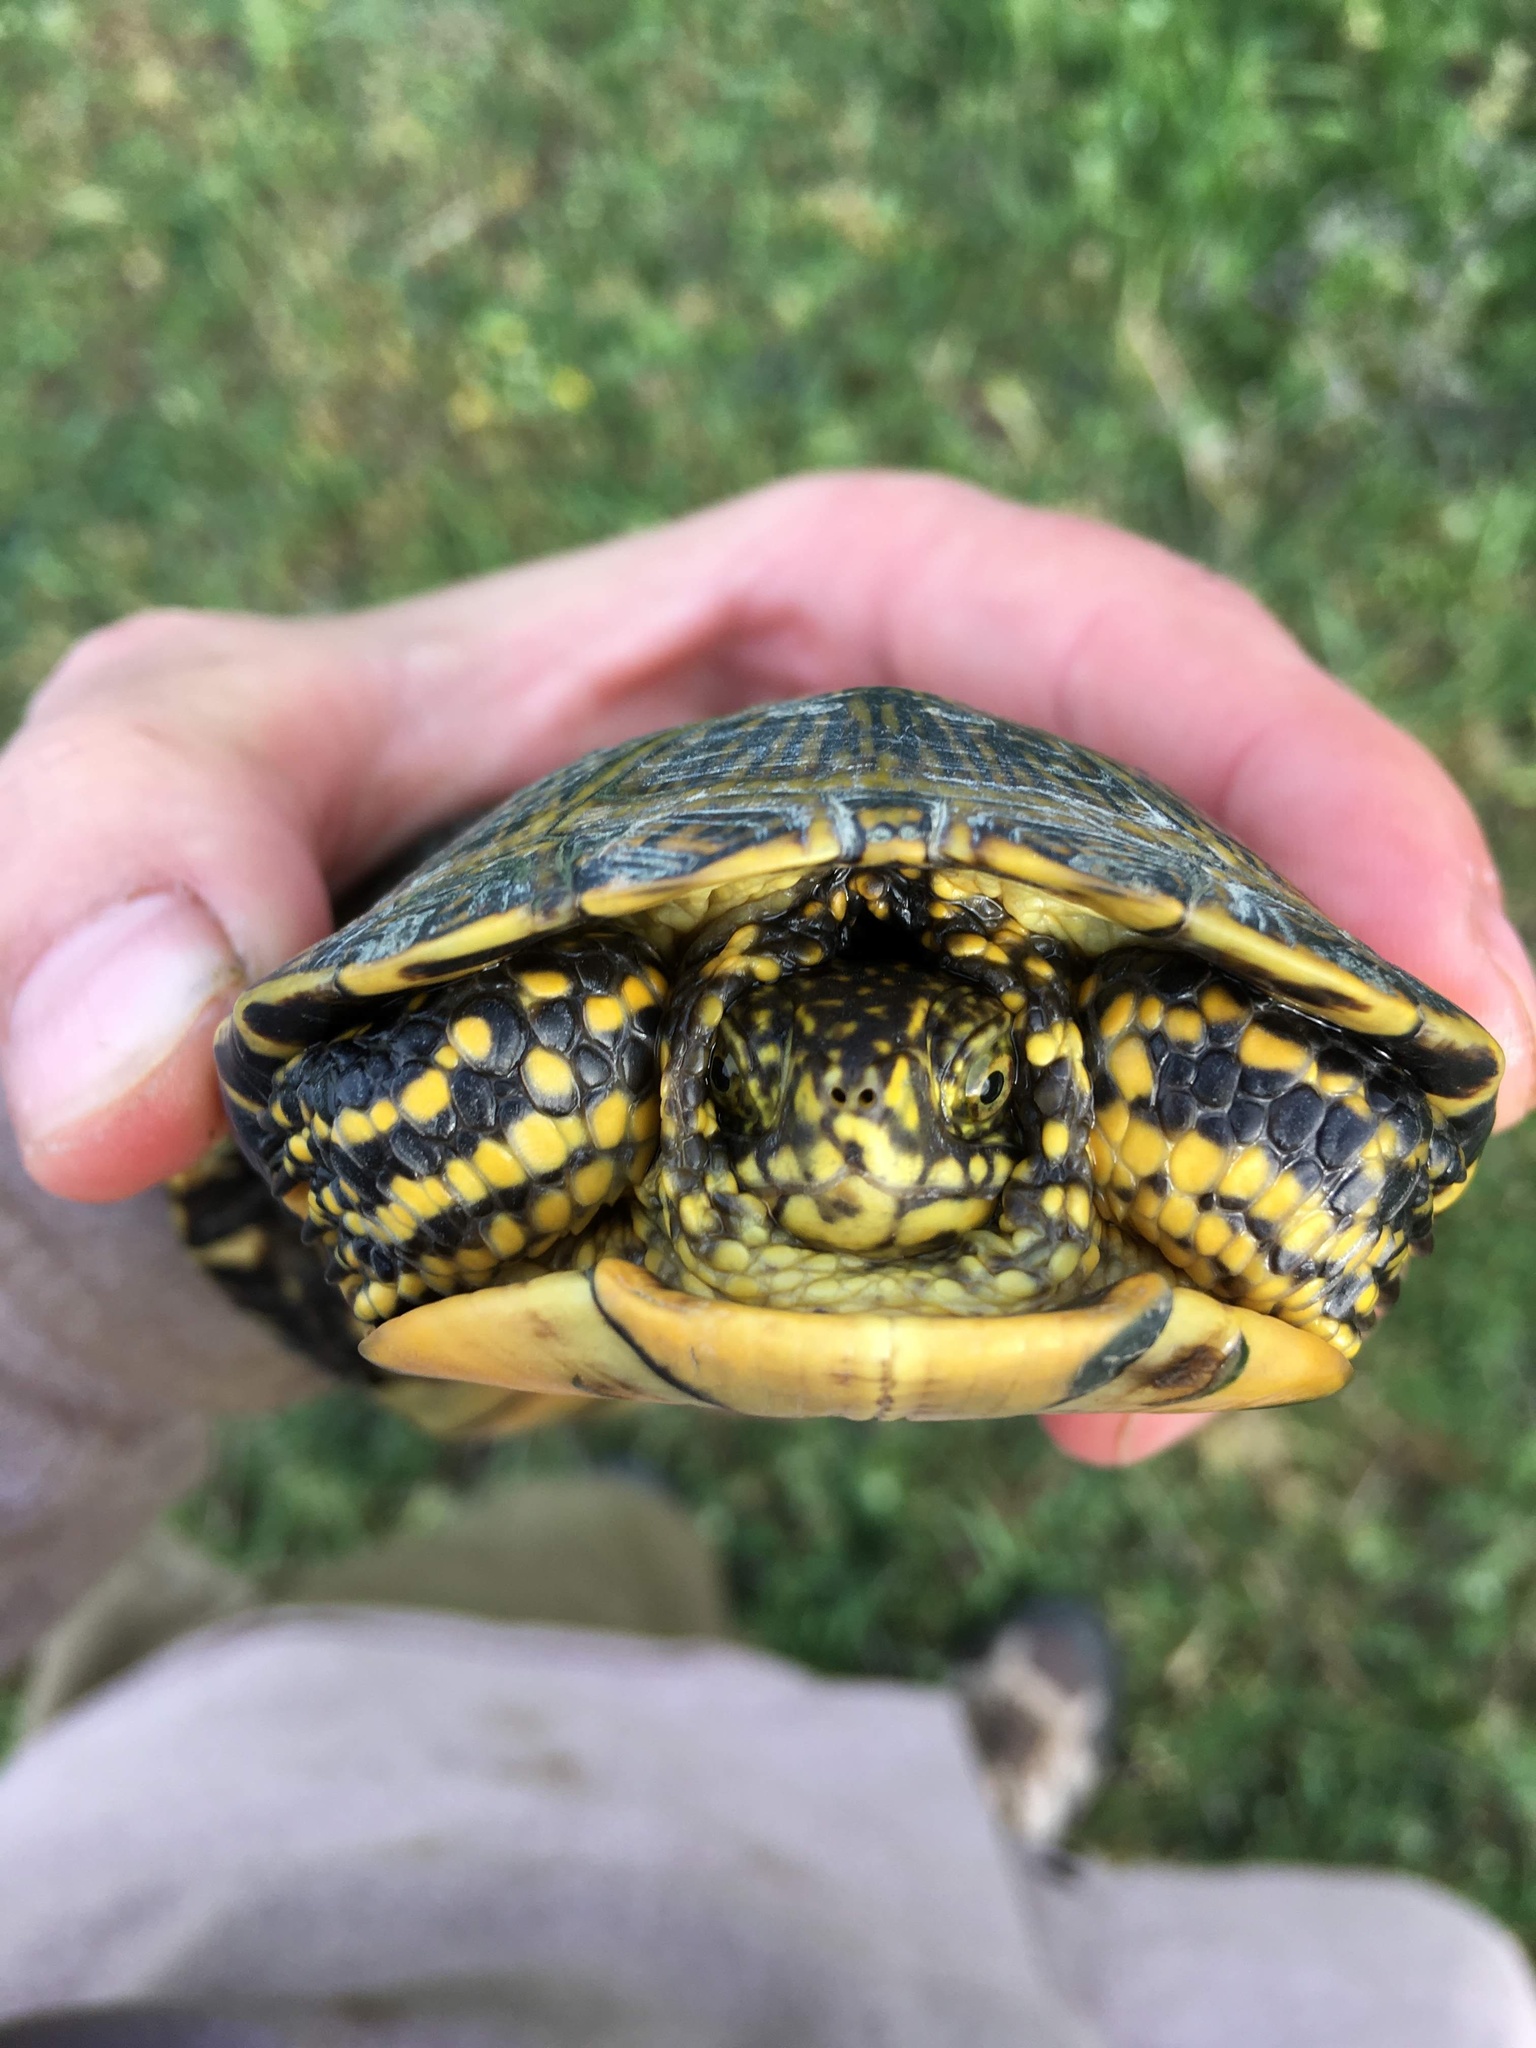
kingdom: Animalia
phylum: Chordata
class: Testudines
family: Emydidae
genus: Emys
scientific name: Emys orbicularis
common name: European pond turtle
